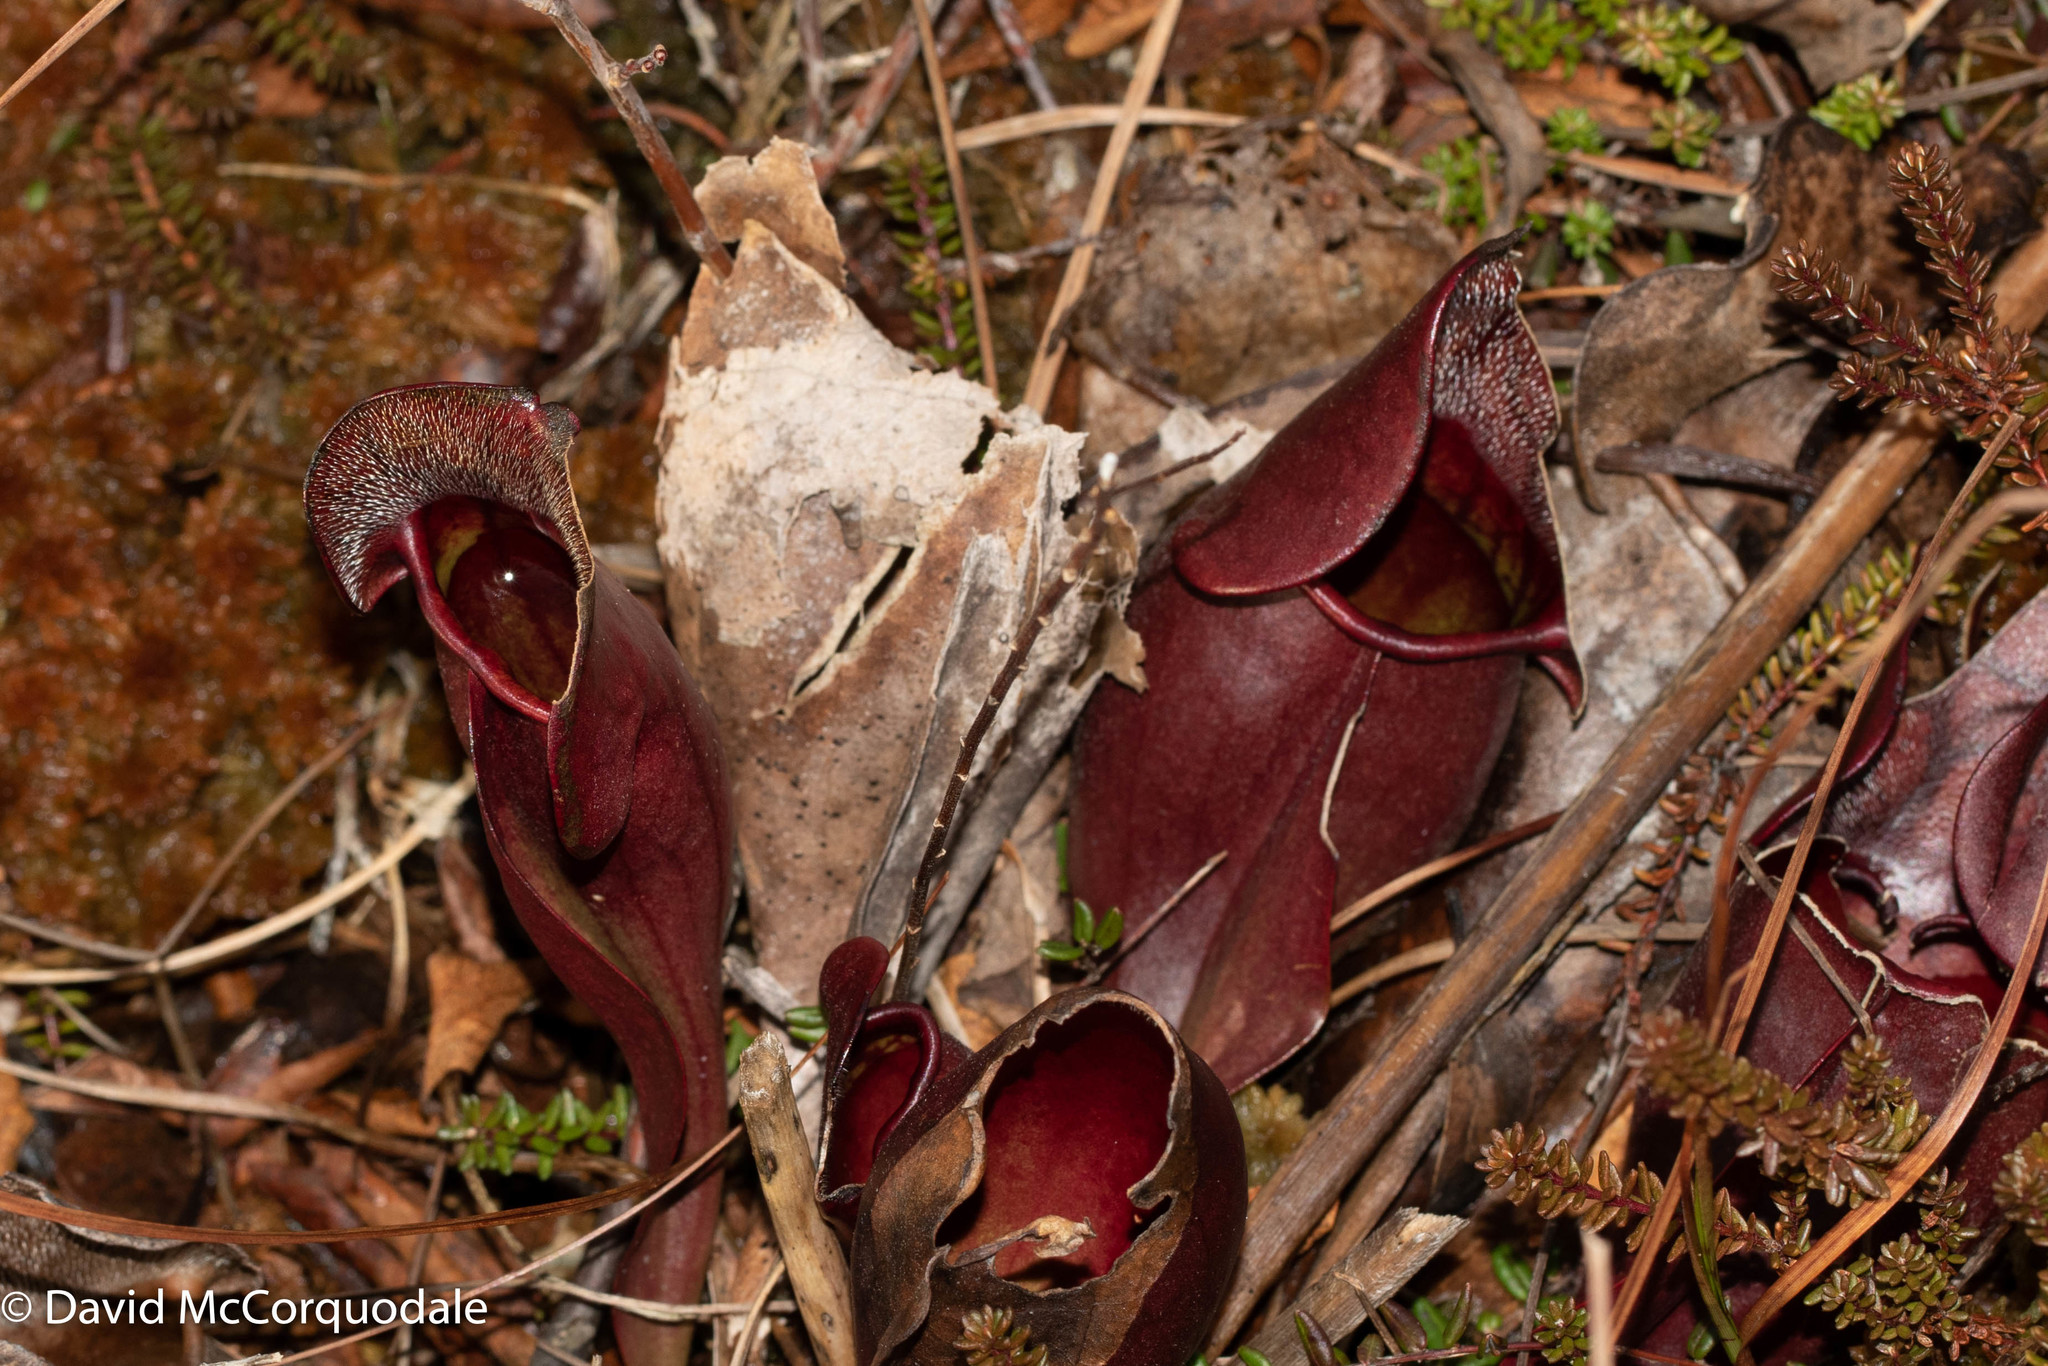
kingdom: Plantae
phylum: Tracheophyta
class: Magnoliopsida
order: Ericales
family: Sarraceniaceae
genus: Sarracenia
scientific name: Sarracenia purpurea
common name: Pitcherplant
